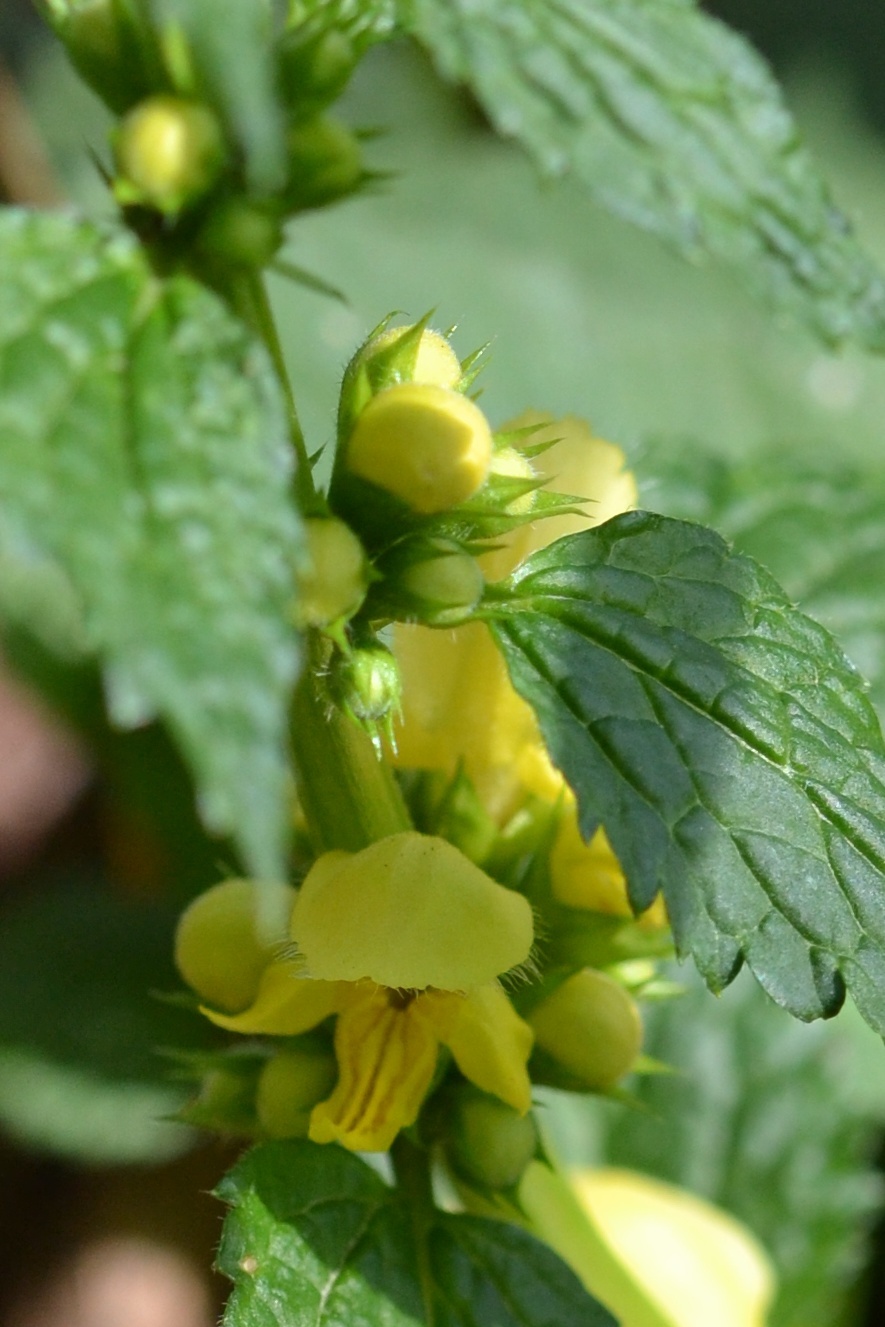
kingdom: Plantae
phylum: Tracheophyta
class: Magnoliopsida
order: Lamiales
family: Lamiaceae
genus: Lamium
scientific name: Lamium galeobdolon
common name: Yellow archangel
